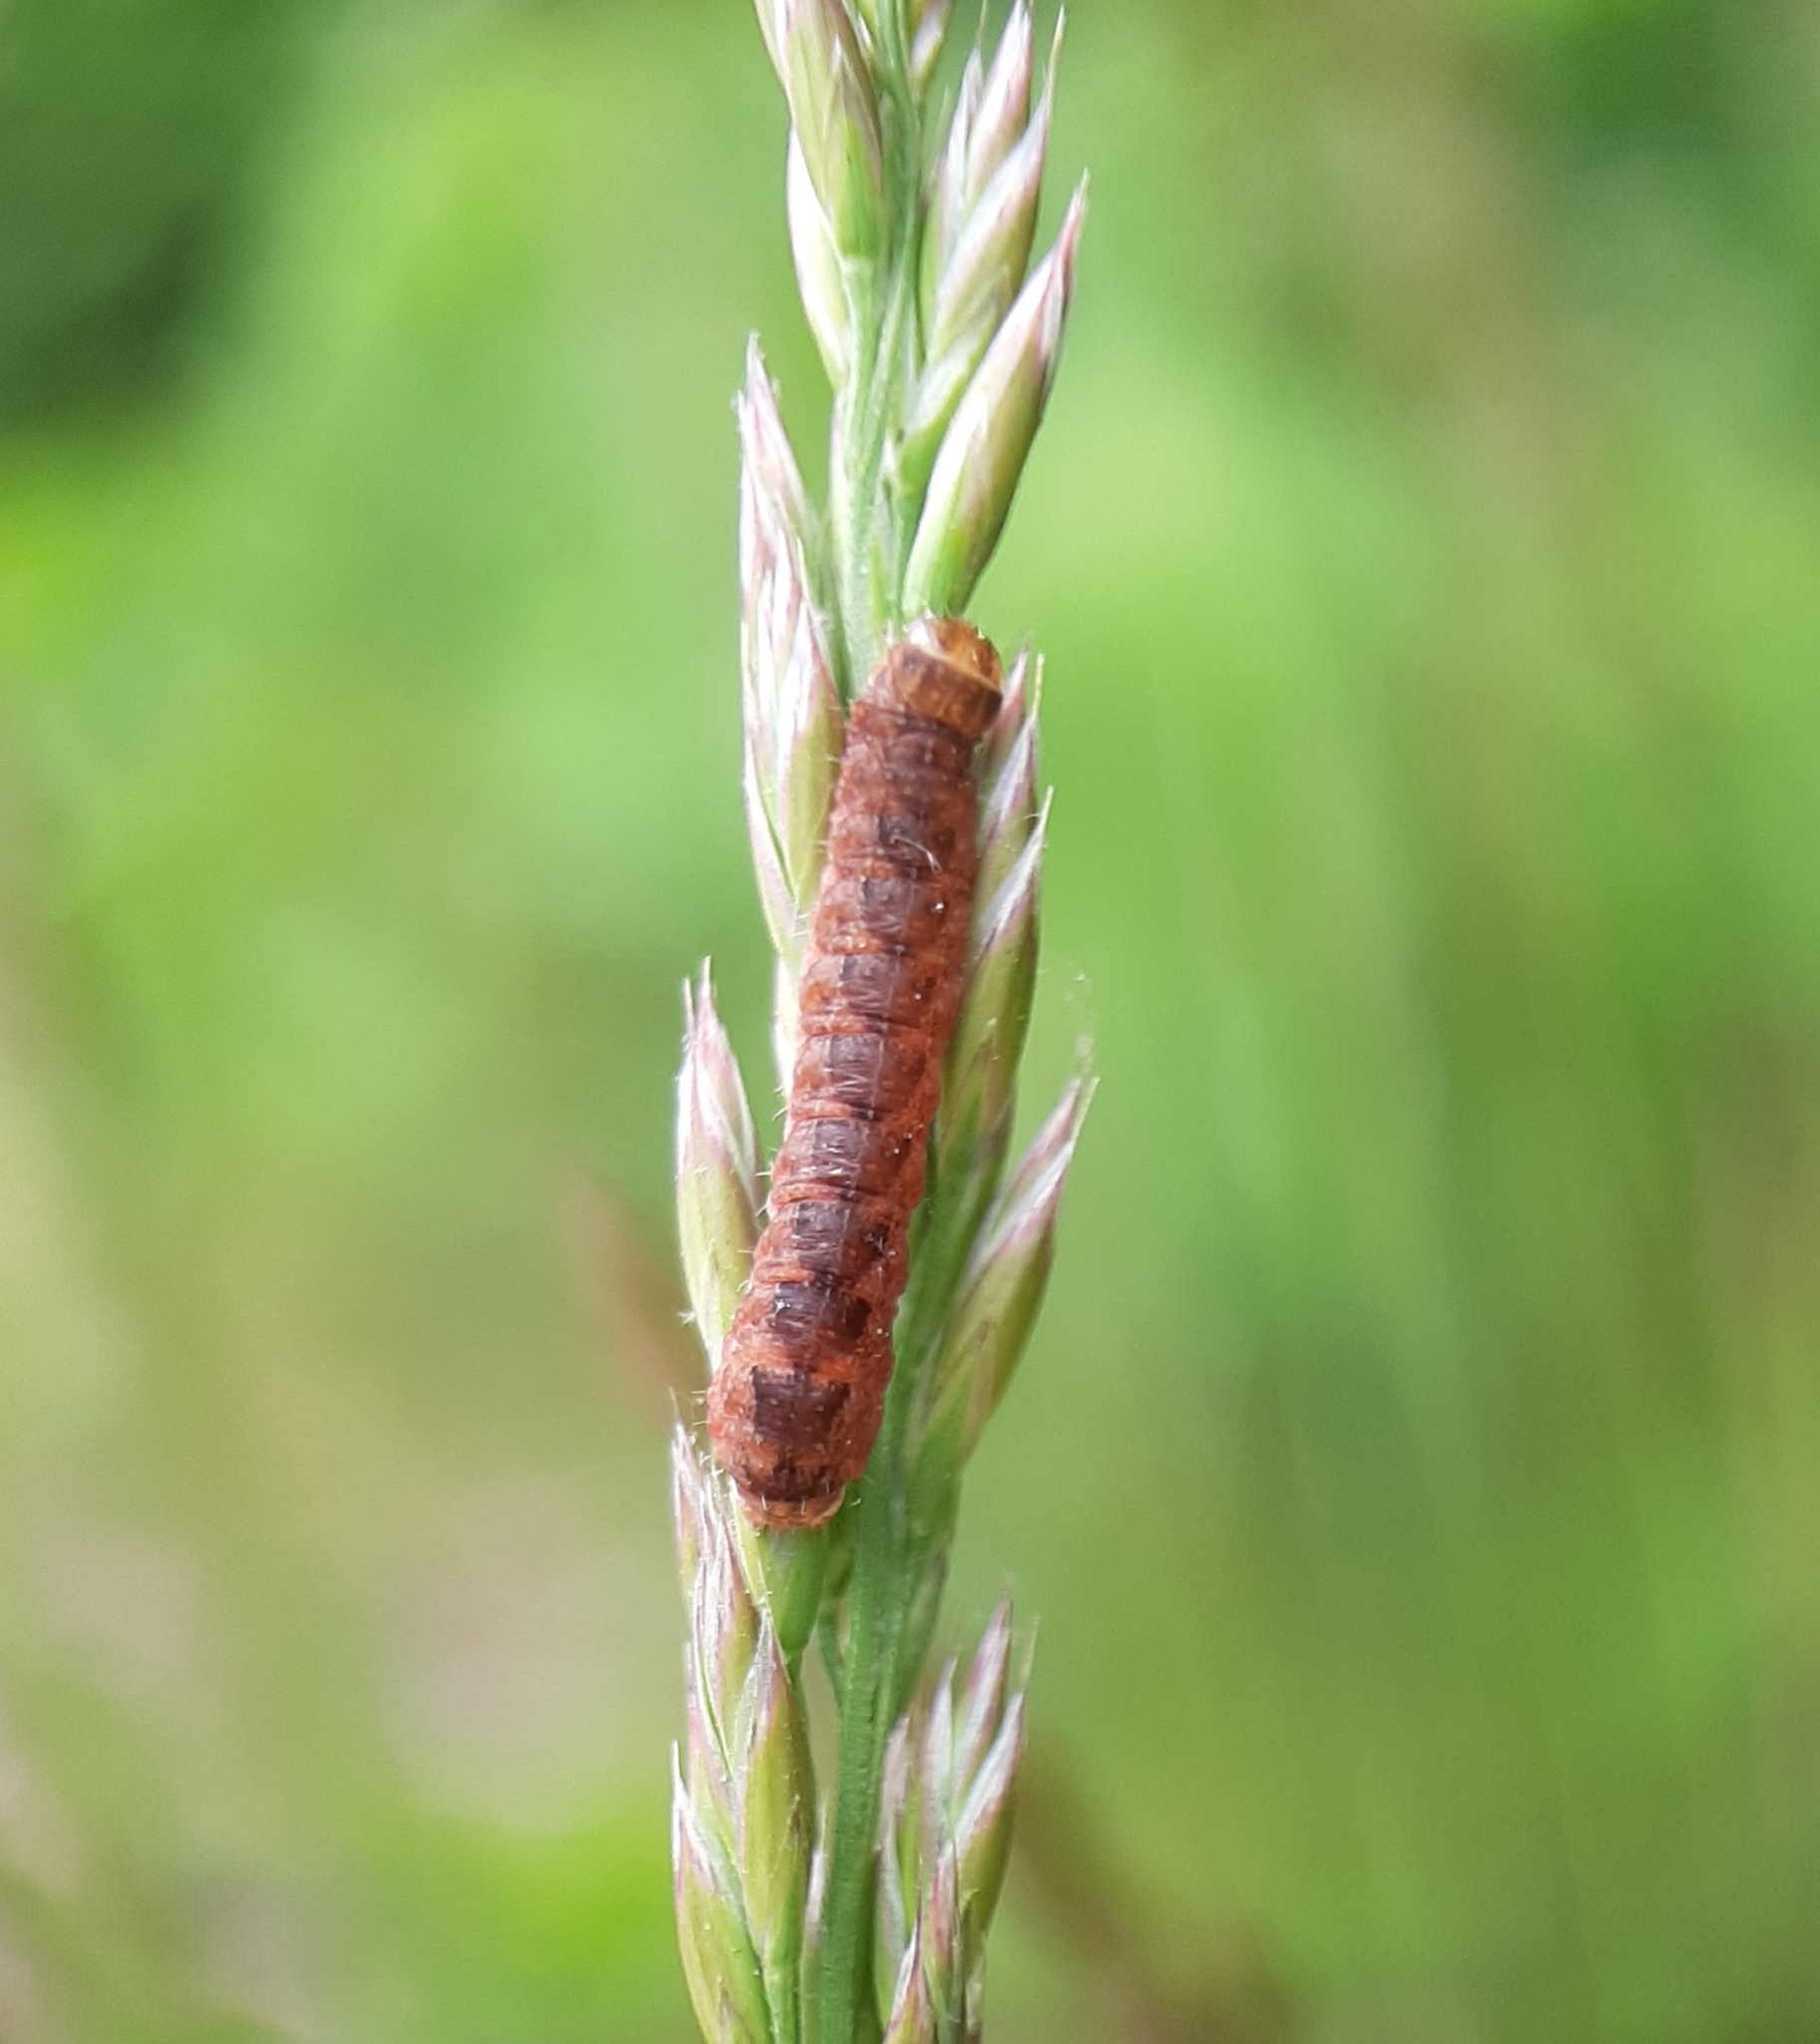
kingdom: Animalia
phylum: Arthropoda
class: Insecta
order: Lepidoptera
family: Noctuidae
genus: Agrochola
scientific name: Agrochola bicolorago
